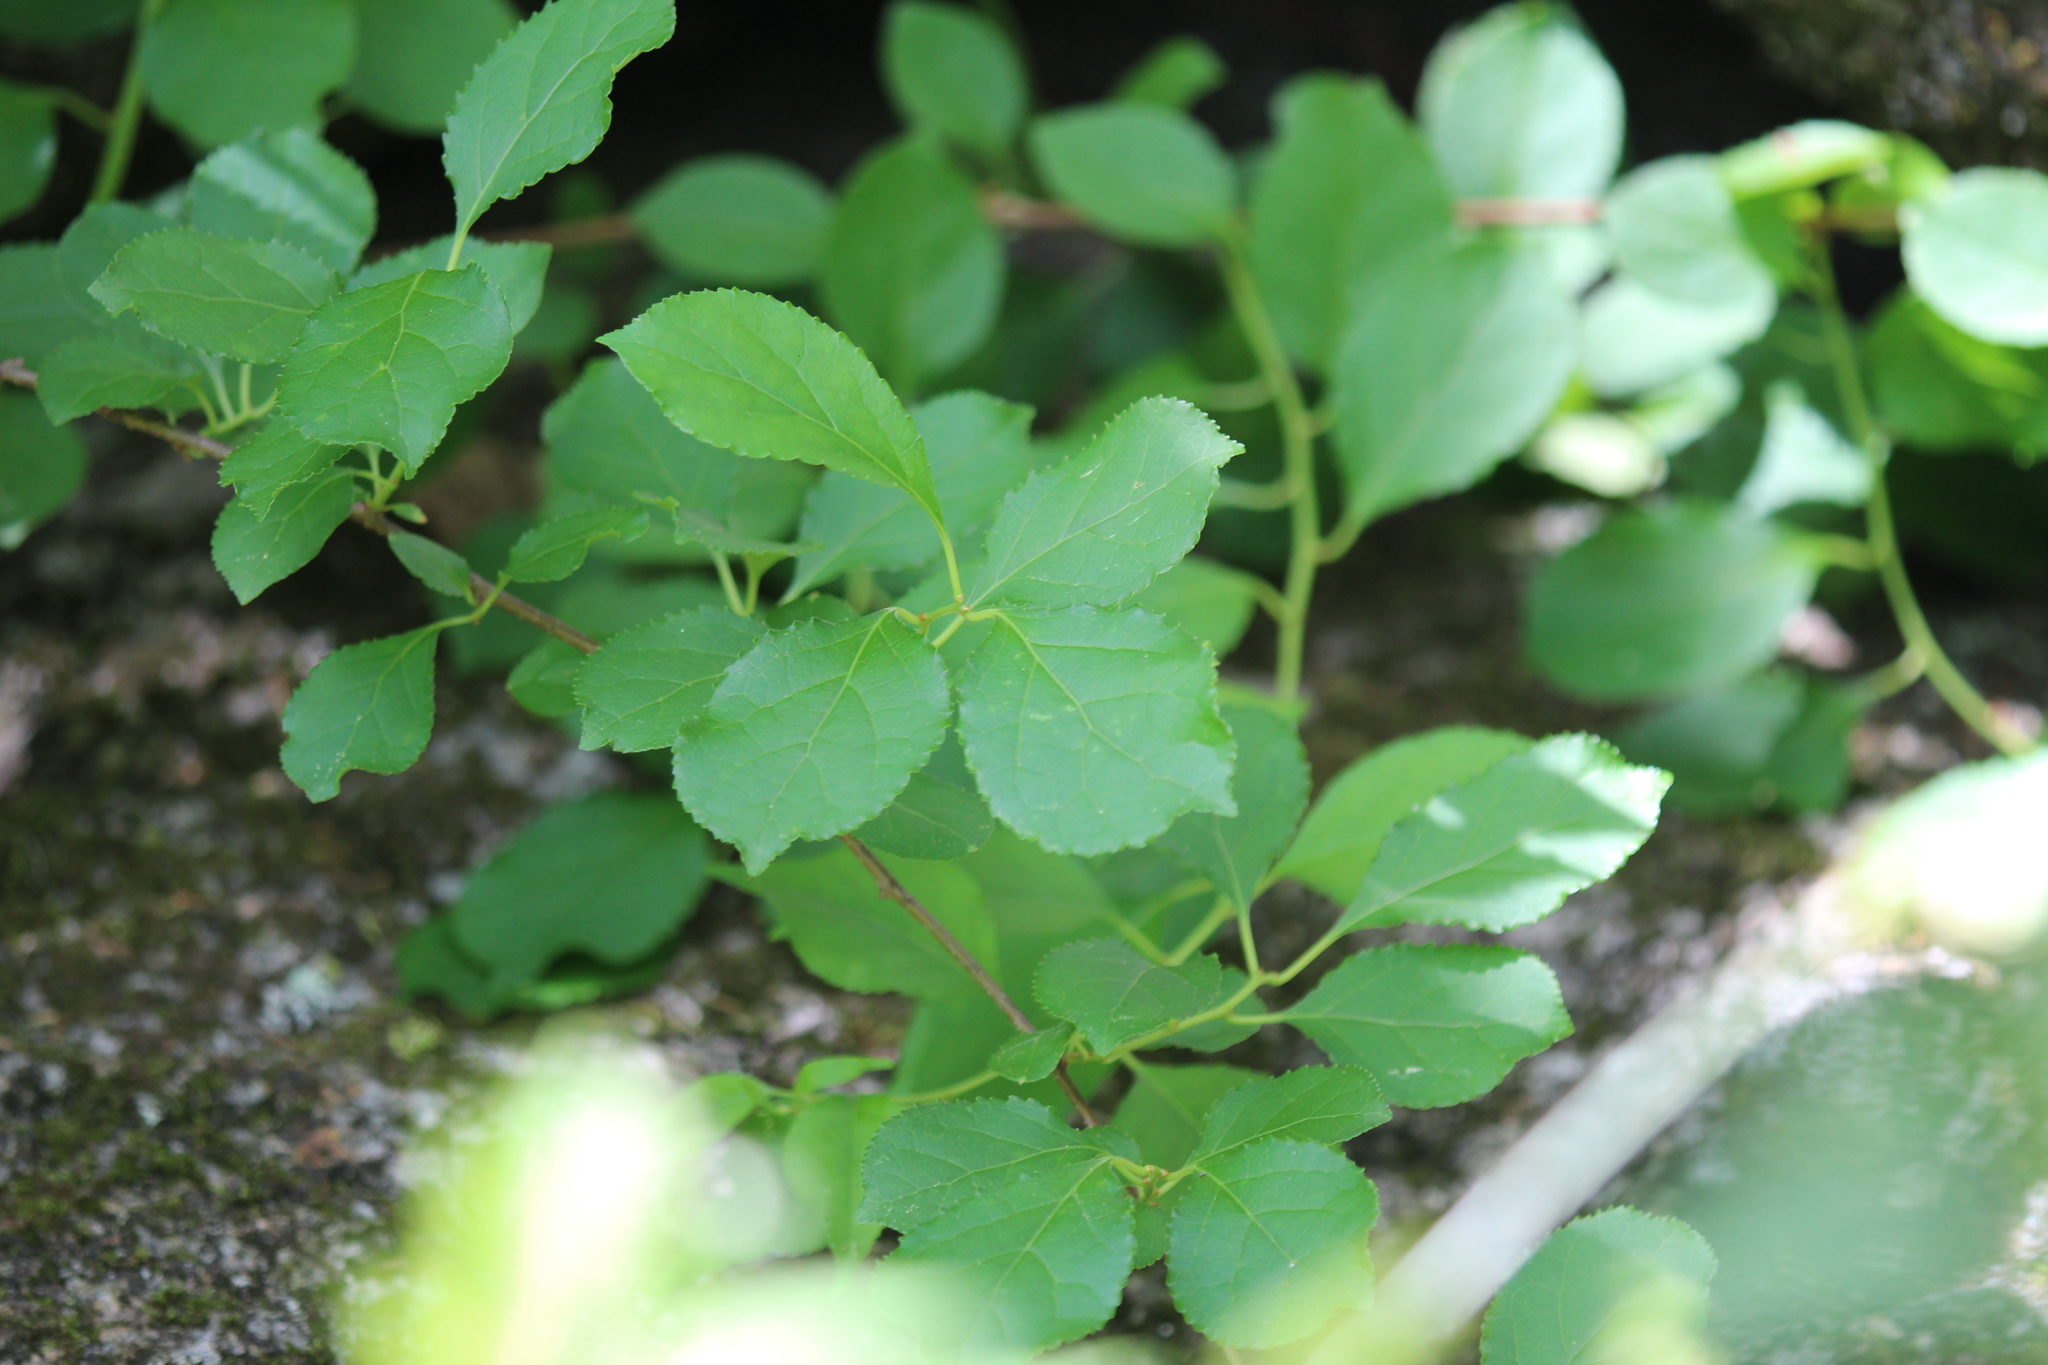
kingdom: Plantae
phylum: Tracheophyta
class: Magnoliopsida
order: Celastrales
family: Celastraceae
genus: Celastrus
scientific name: Celastrus orbiculatus
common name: Oriental bittersweet
